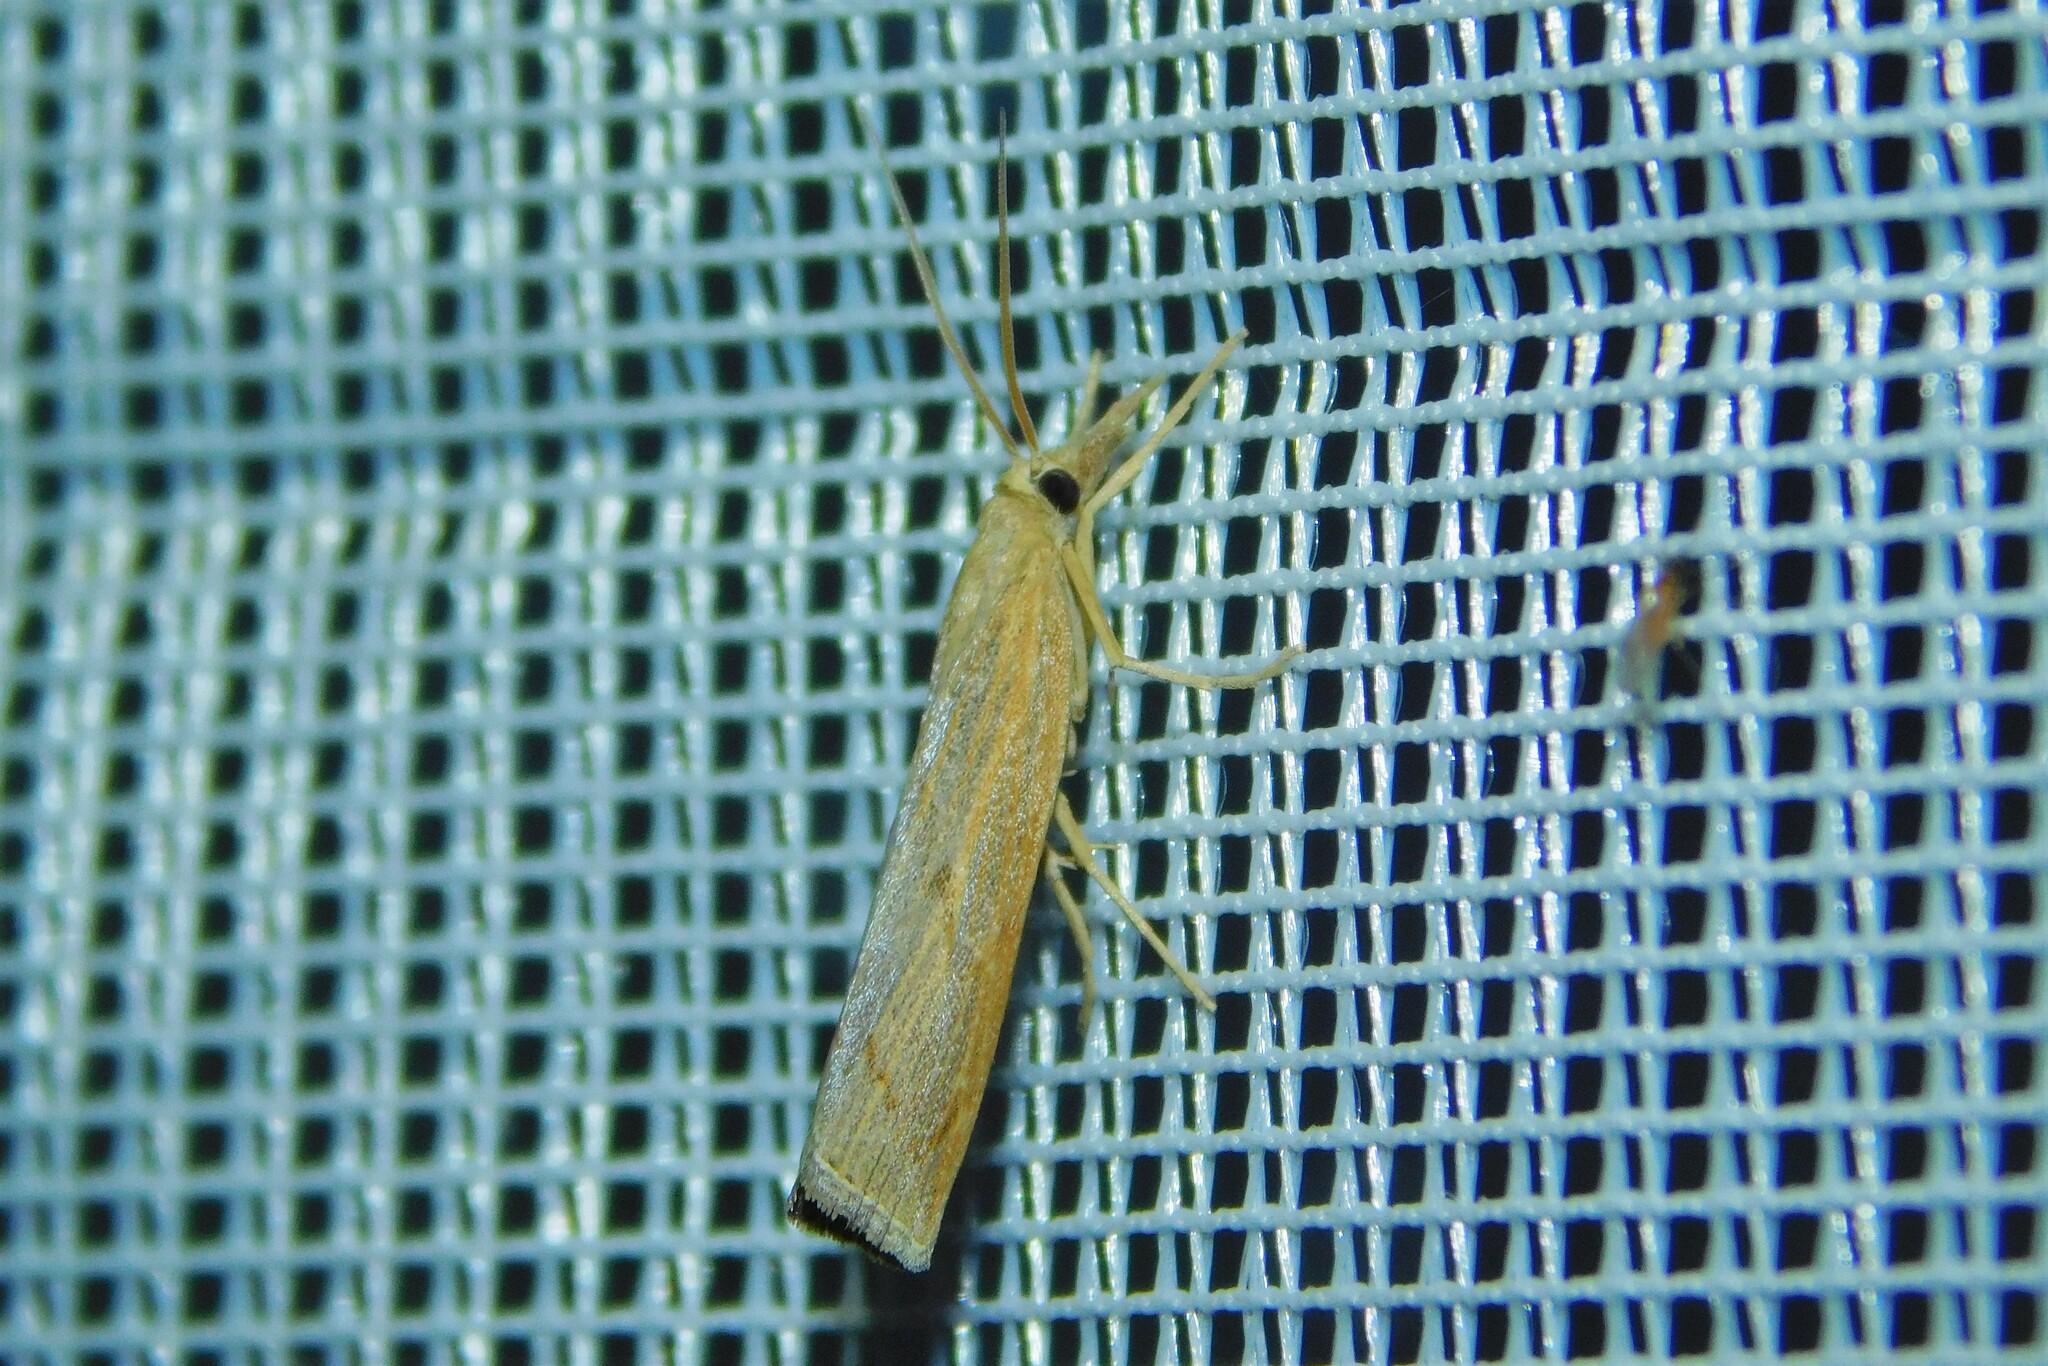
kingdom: Animalia
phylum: Arthropoda
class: Insecta
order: Lepidoptera
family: Crambidae
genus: Pediasia
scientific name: Pediasia contaminella
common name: Waste grass-veneer
